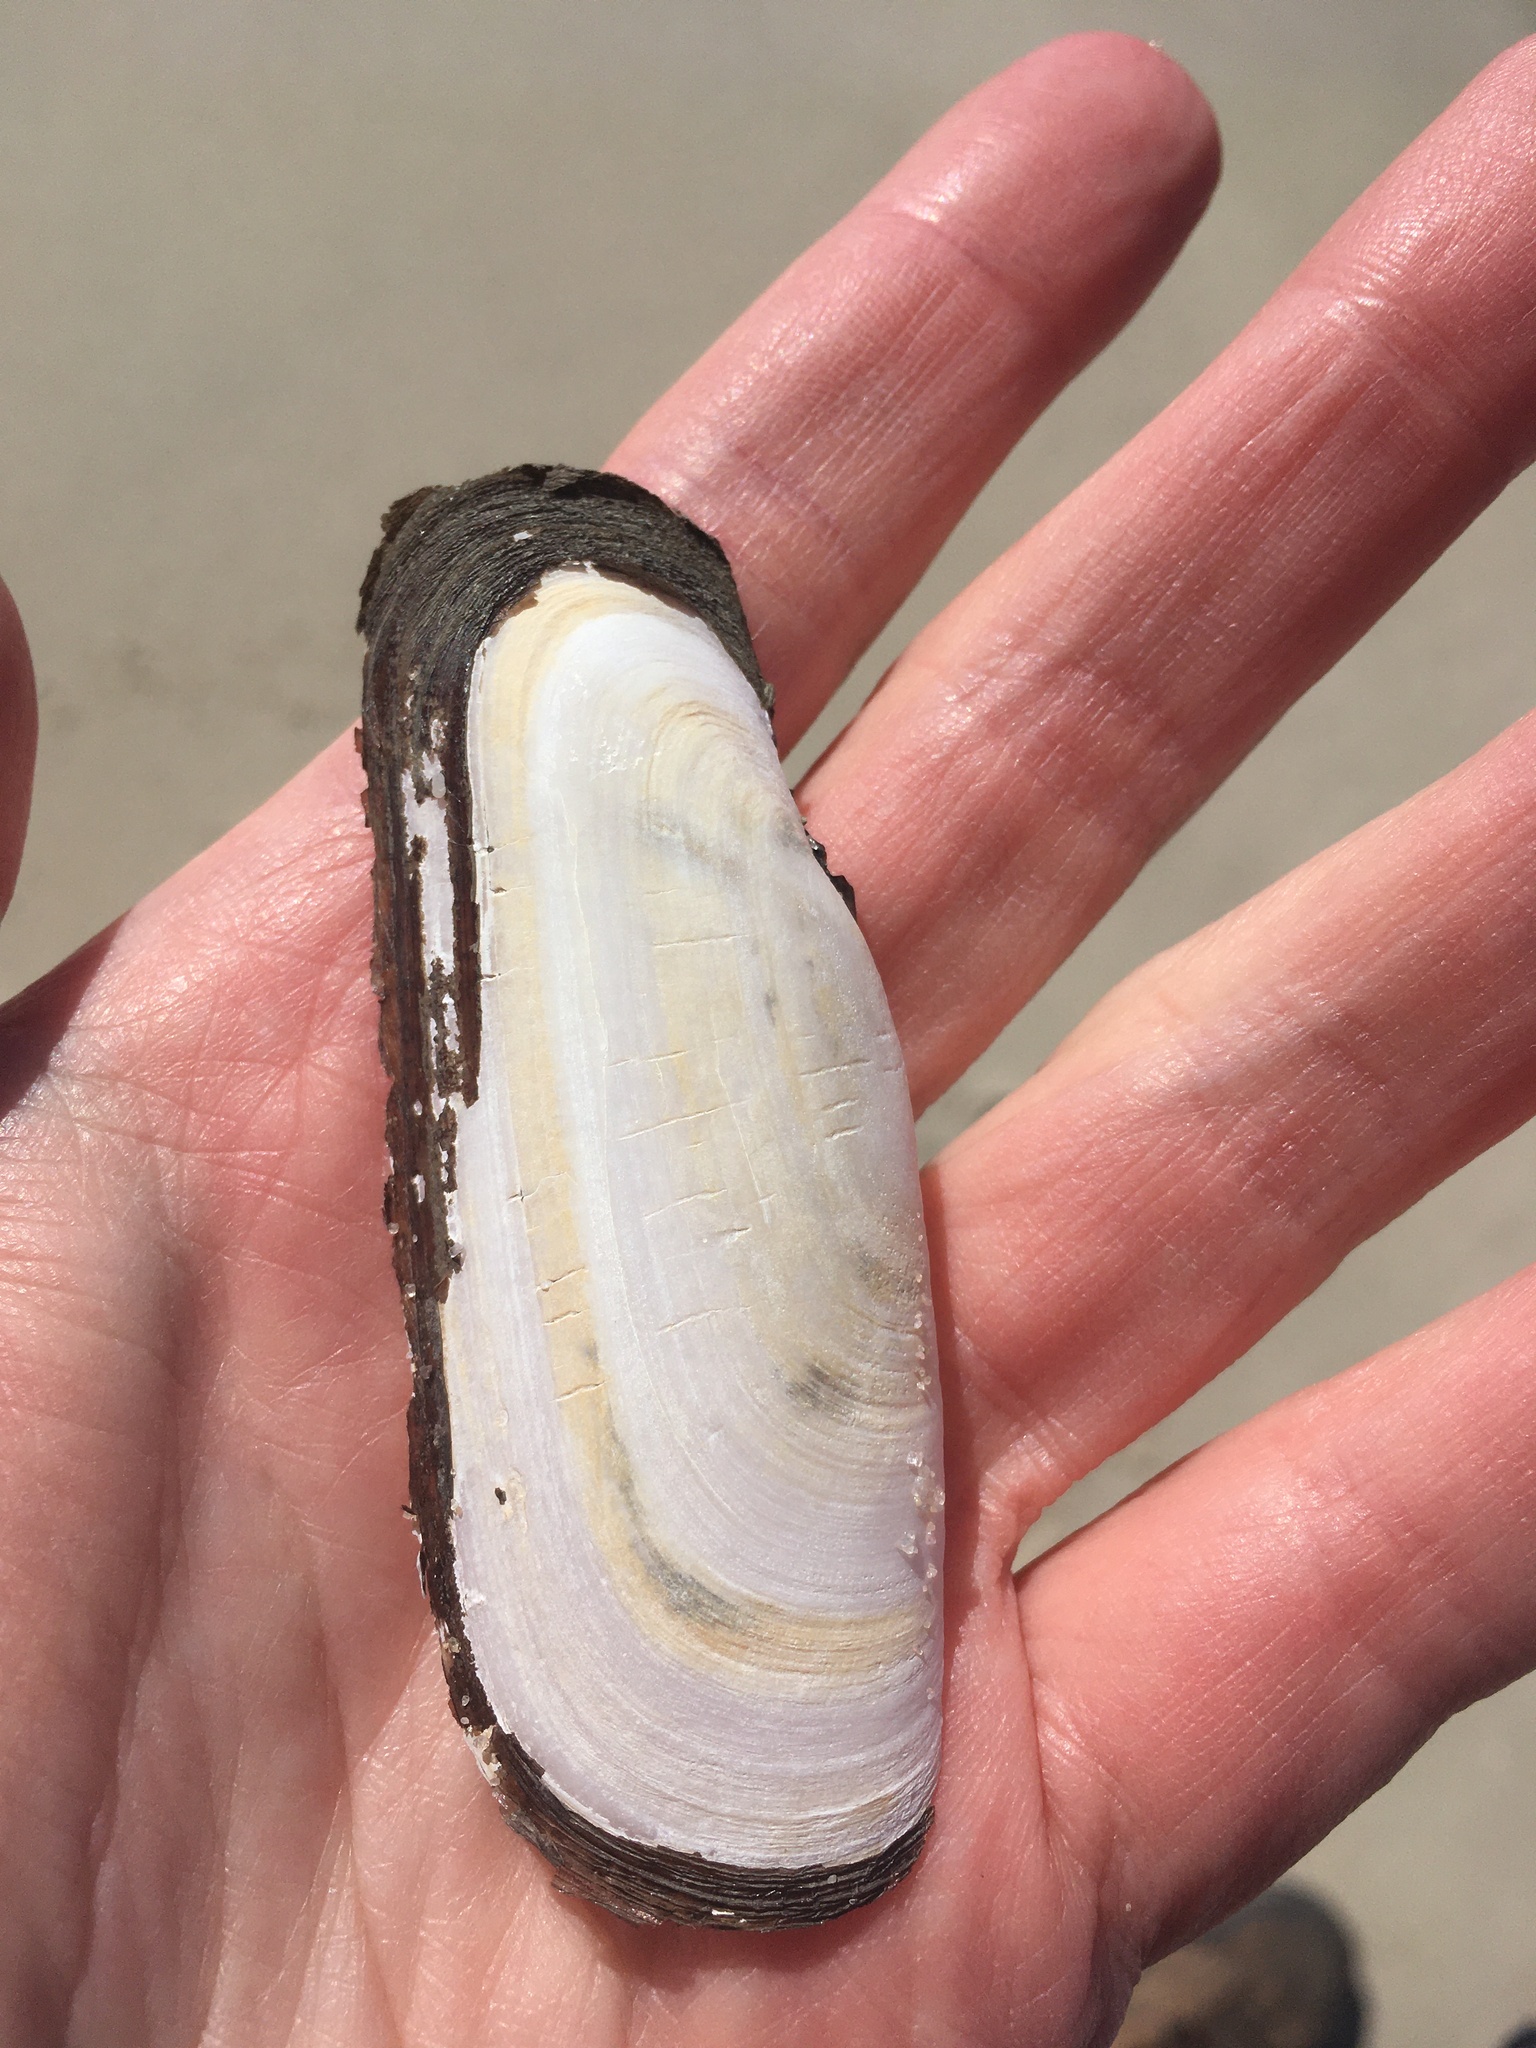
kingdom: Animalia
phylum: Mollusca
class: Bivalvia
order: Cardiida
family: Solecurtidae
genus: Tagelus
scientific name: Tagelus plebeius
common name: Stout tagelus
